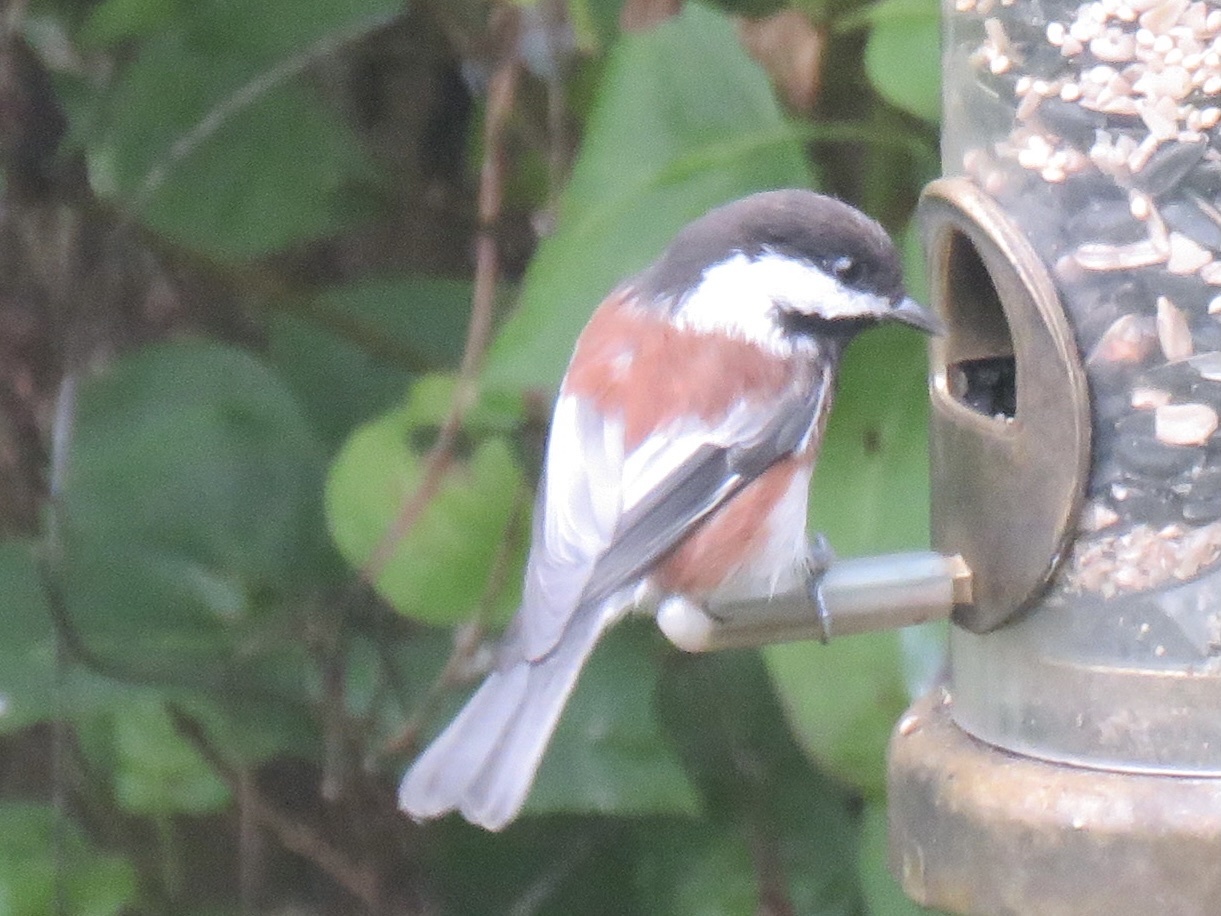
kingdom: Animalia
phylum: Chordata
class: Aves
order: Passeriformes
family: Paridae
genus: Poecile
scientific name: Poecile rufescens
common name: Chestnut-backed chickadee
